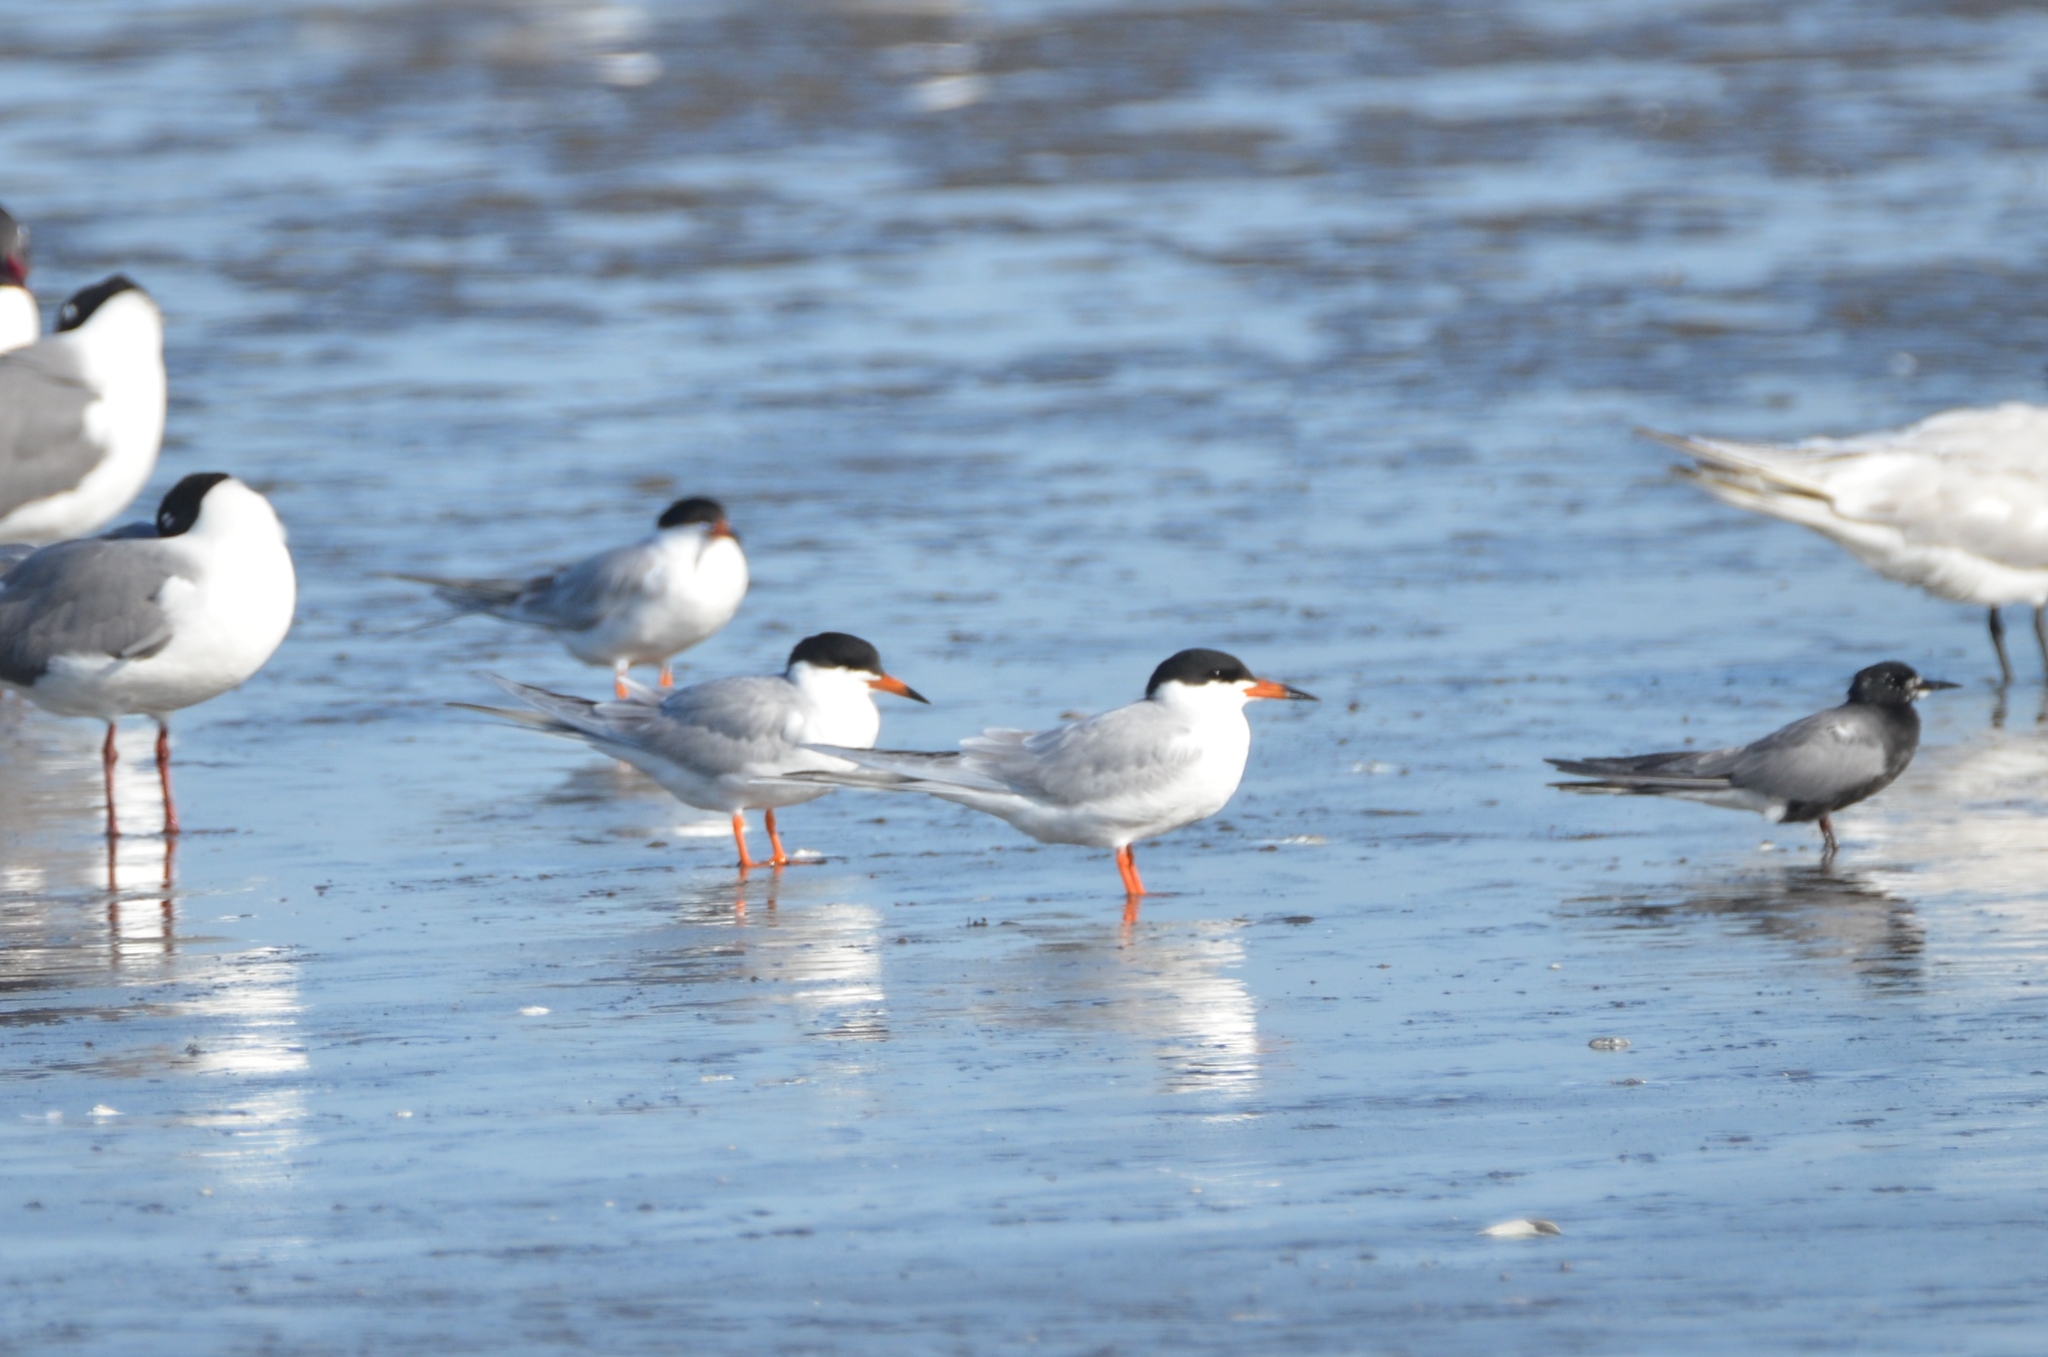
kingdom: Animalia
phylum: Chordata
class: Aves
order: Charadriiformes
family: Laridae
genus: Sterna
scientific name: Sterna forsteri
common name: Forster's tern
